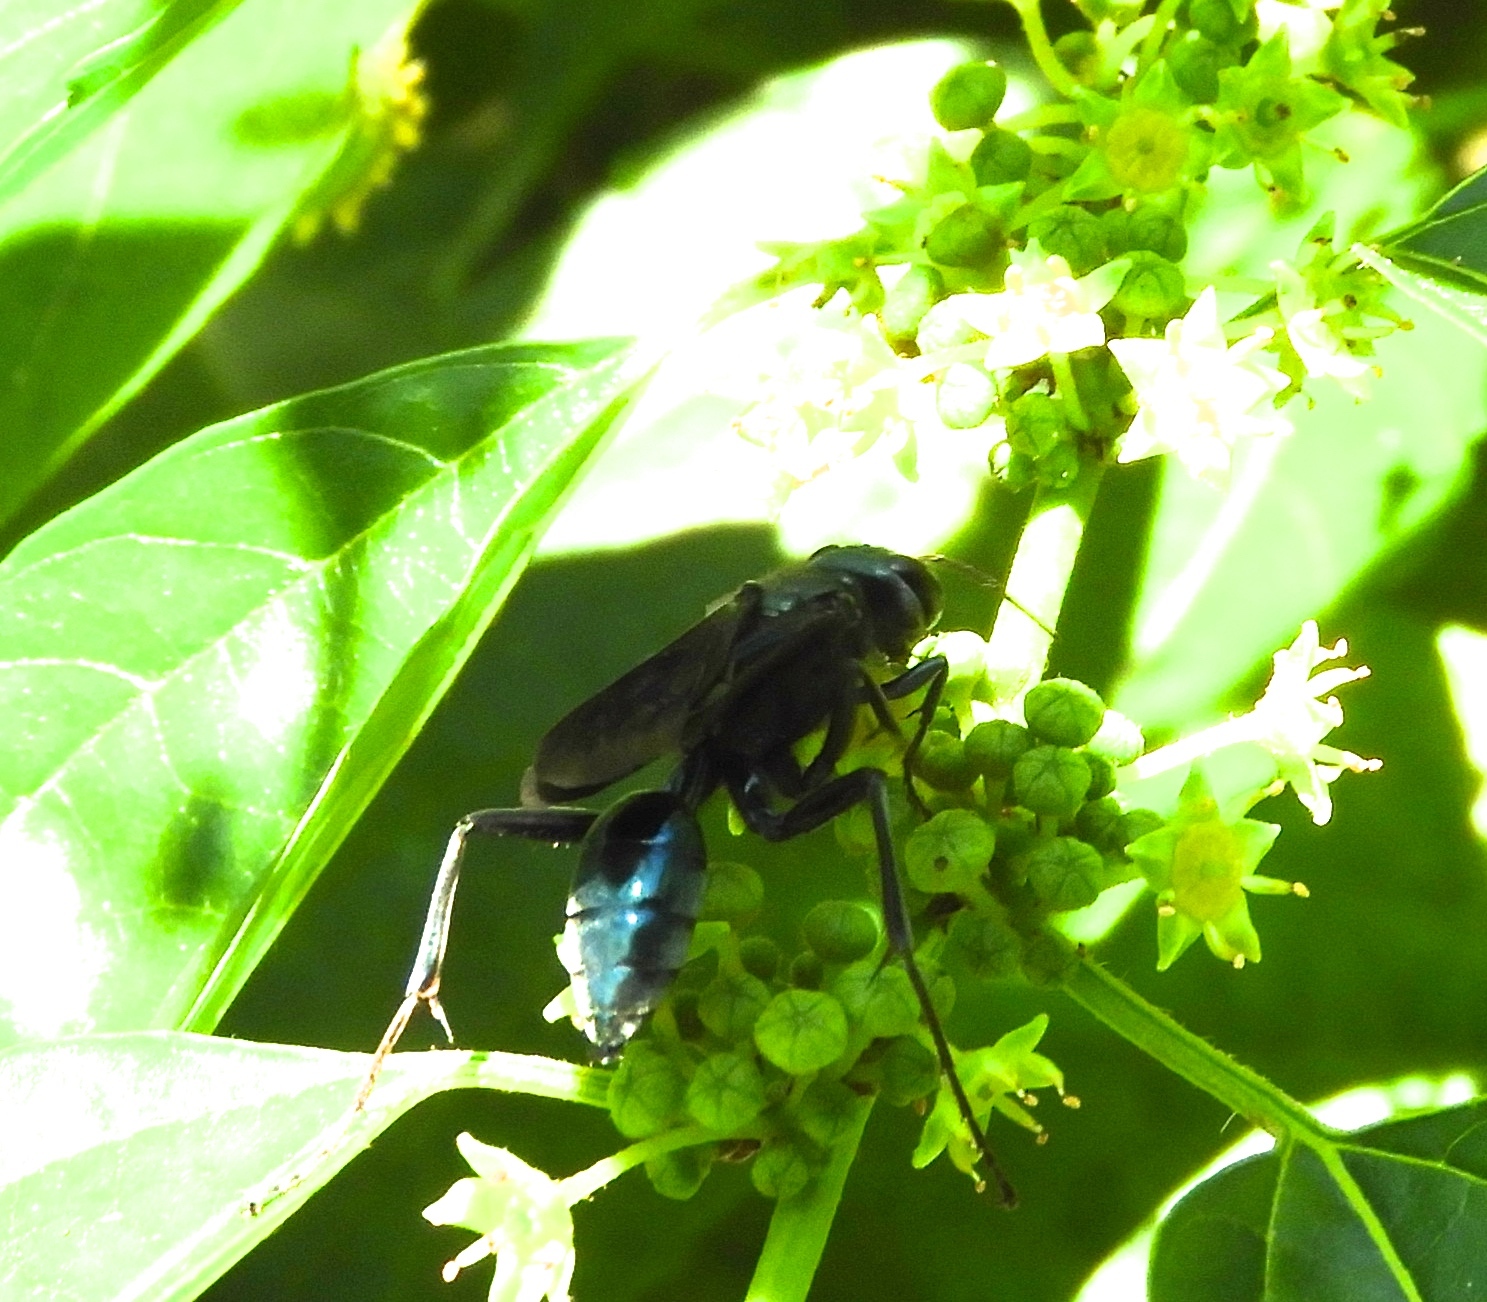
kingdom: Animalia
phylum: Arthropoda
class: Insecta
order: Hymenoptera
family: Sphecidae
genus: Chalybion
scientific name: Chalybion
